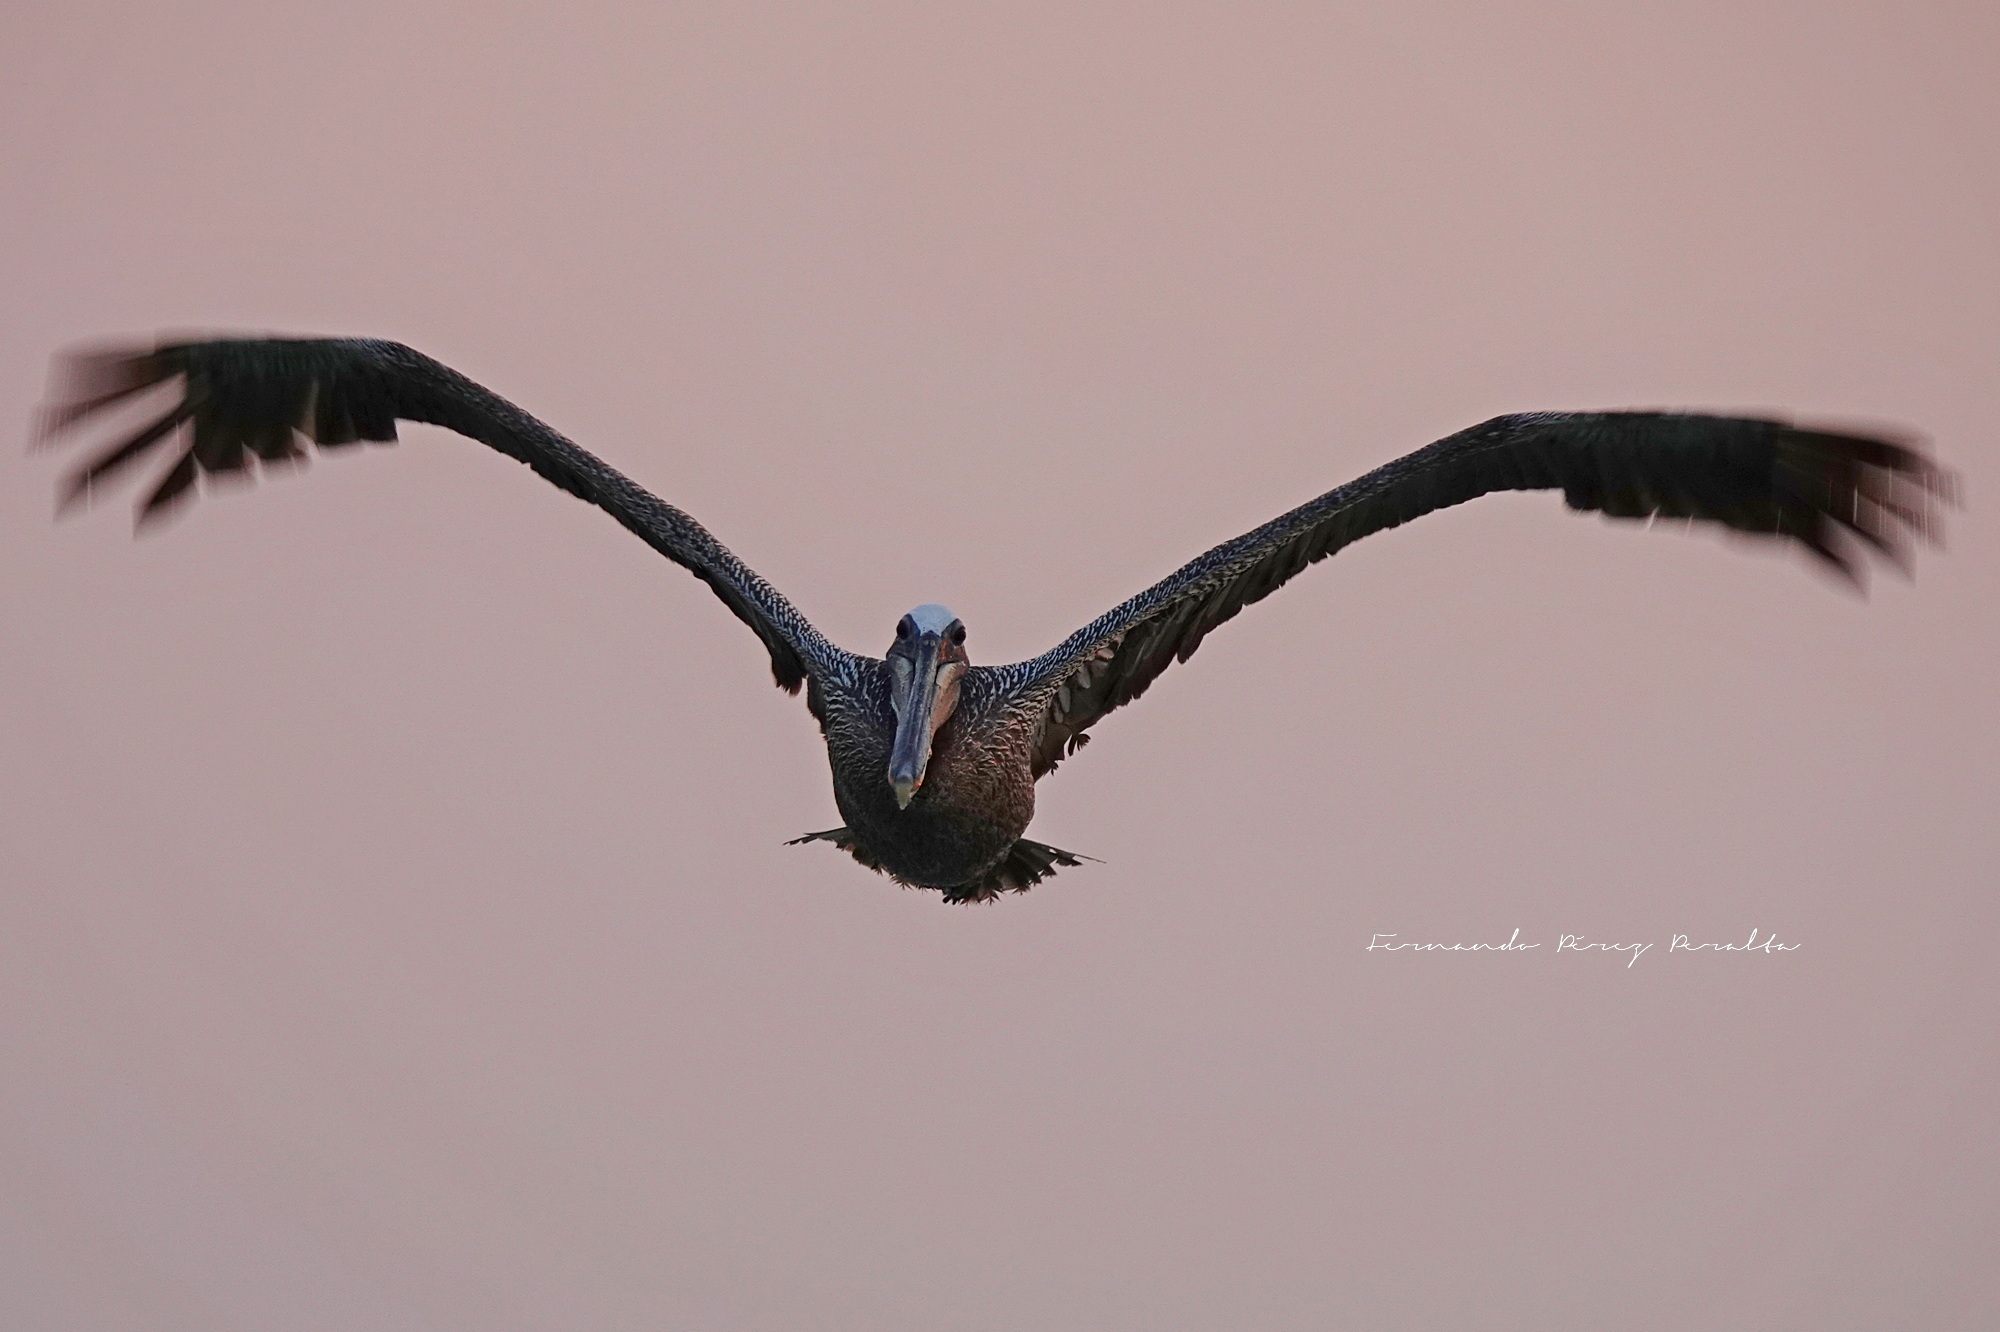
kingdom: Animalia
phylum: Chordata
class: Aves
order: Pelecaniformes
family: Pelecanidae
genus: Pelecanus
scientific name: Pelecanus occidentalis
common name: Brown pelican
